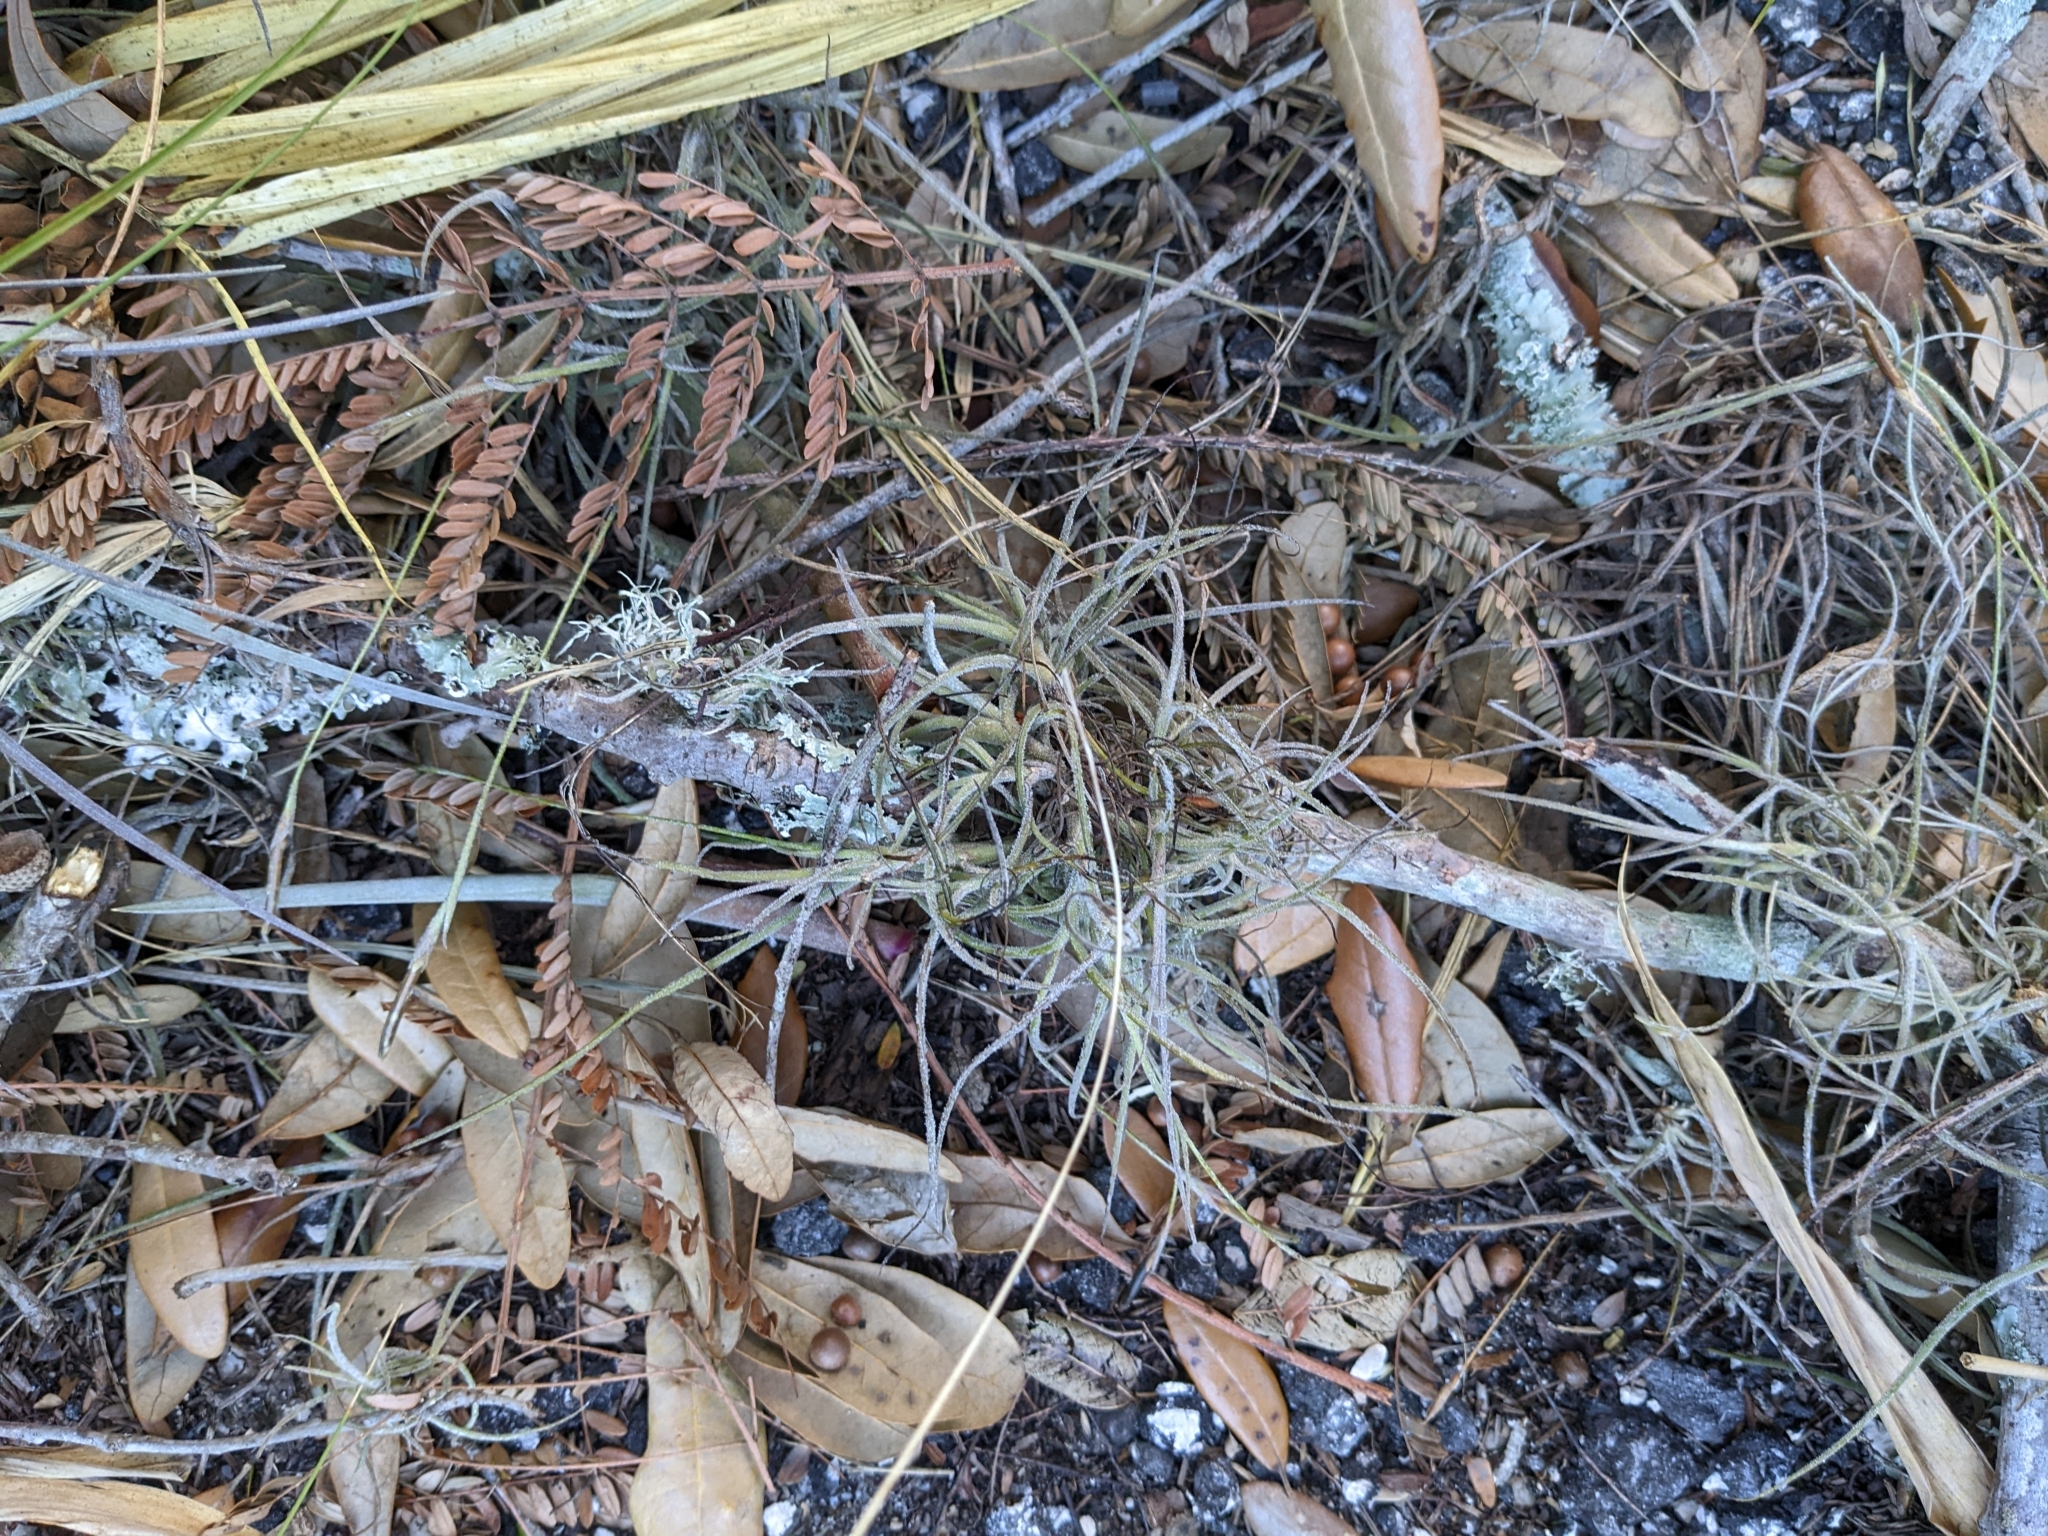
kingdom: Plantae
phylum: Tracheophyta
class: Liliopsida
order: Poales
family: Bromeliaceae
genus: Tillandsia
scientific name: Tillandsia recurvata
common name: Small ballmoss
